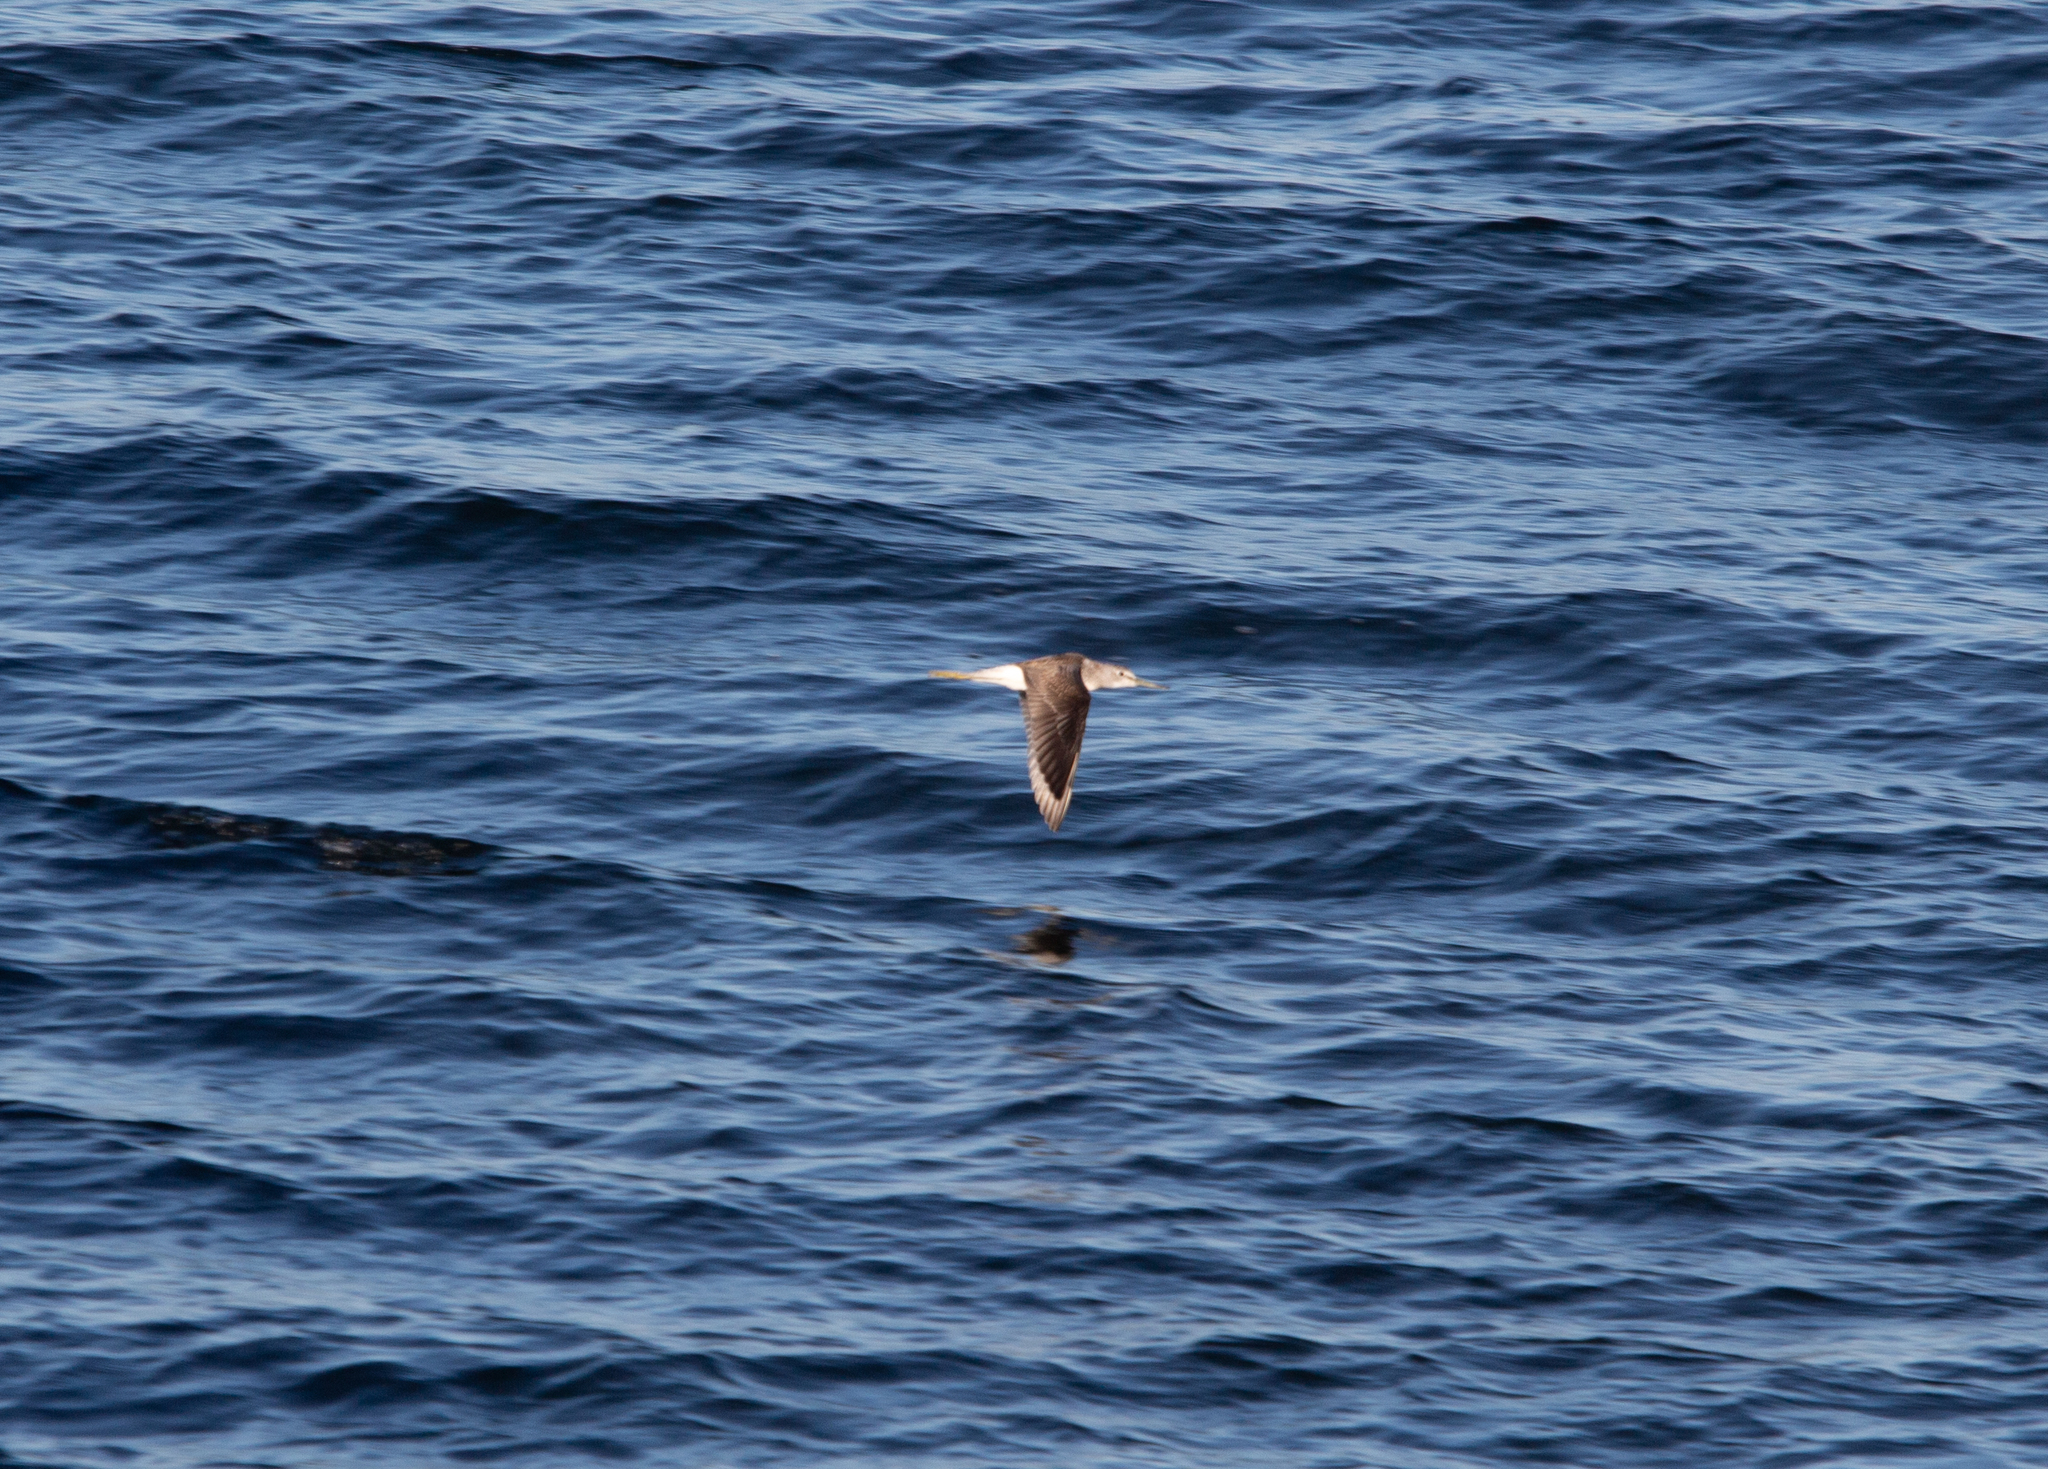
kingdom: Animalia
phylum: Chordata
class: Aves
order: Charadriiformes
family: Scolopacidae
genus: Tringa
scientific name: Tringa nebularia
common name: Common greenshank
